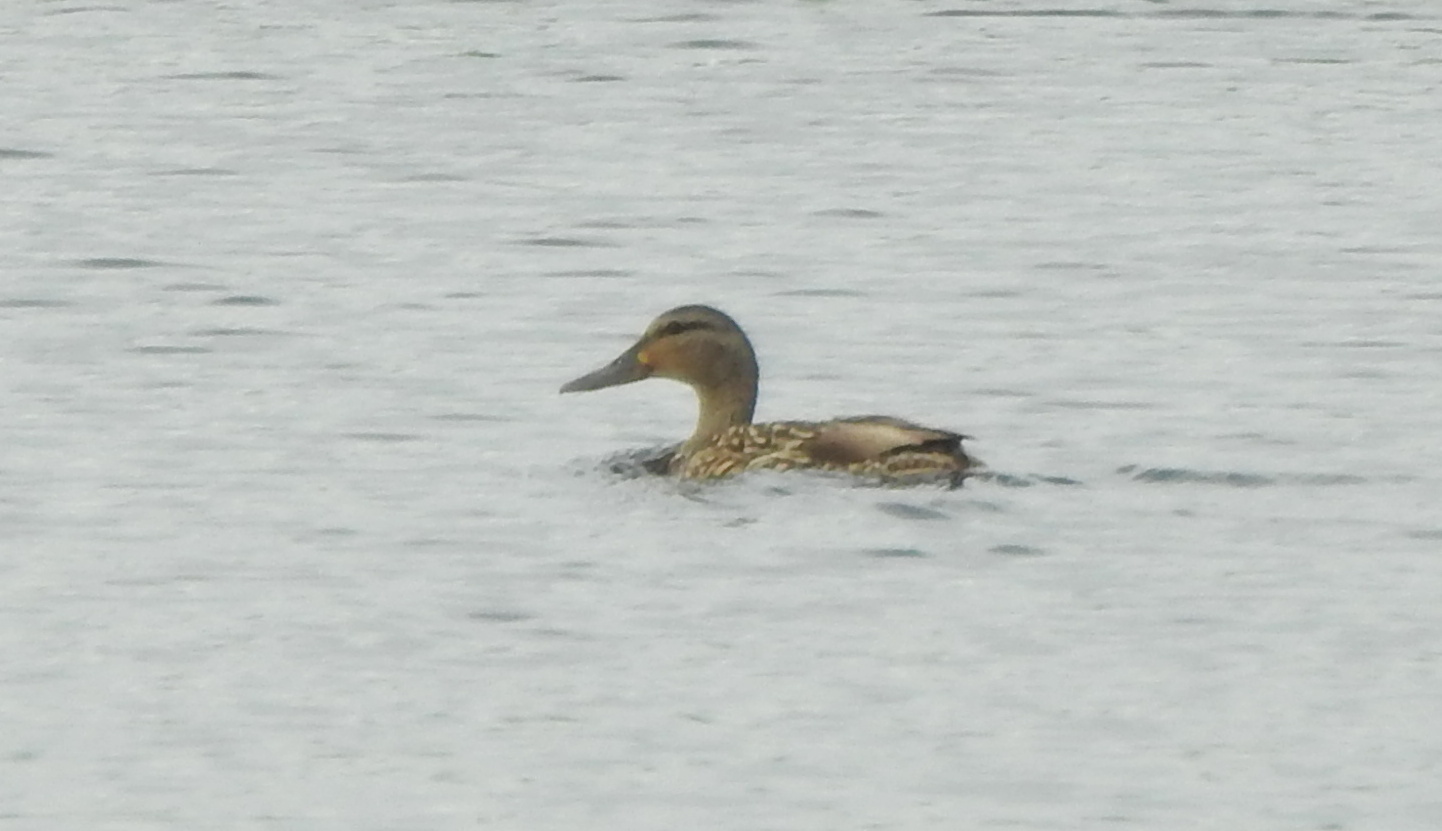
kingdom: Animalia
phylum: Chordata
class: Aves
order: Anseriformes
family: Anatidae
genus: Anas
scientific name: Anas platyrhynchos
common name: Mallard
